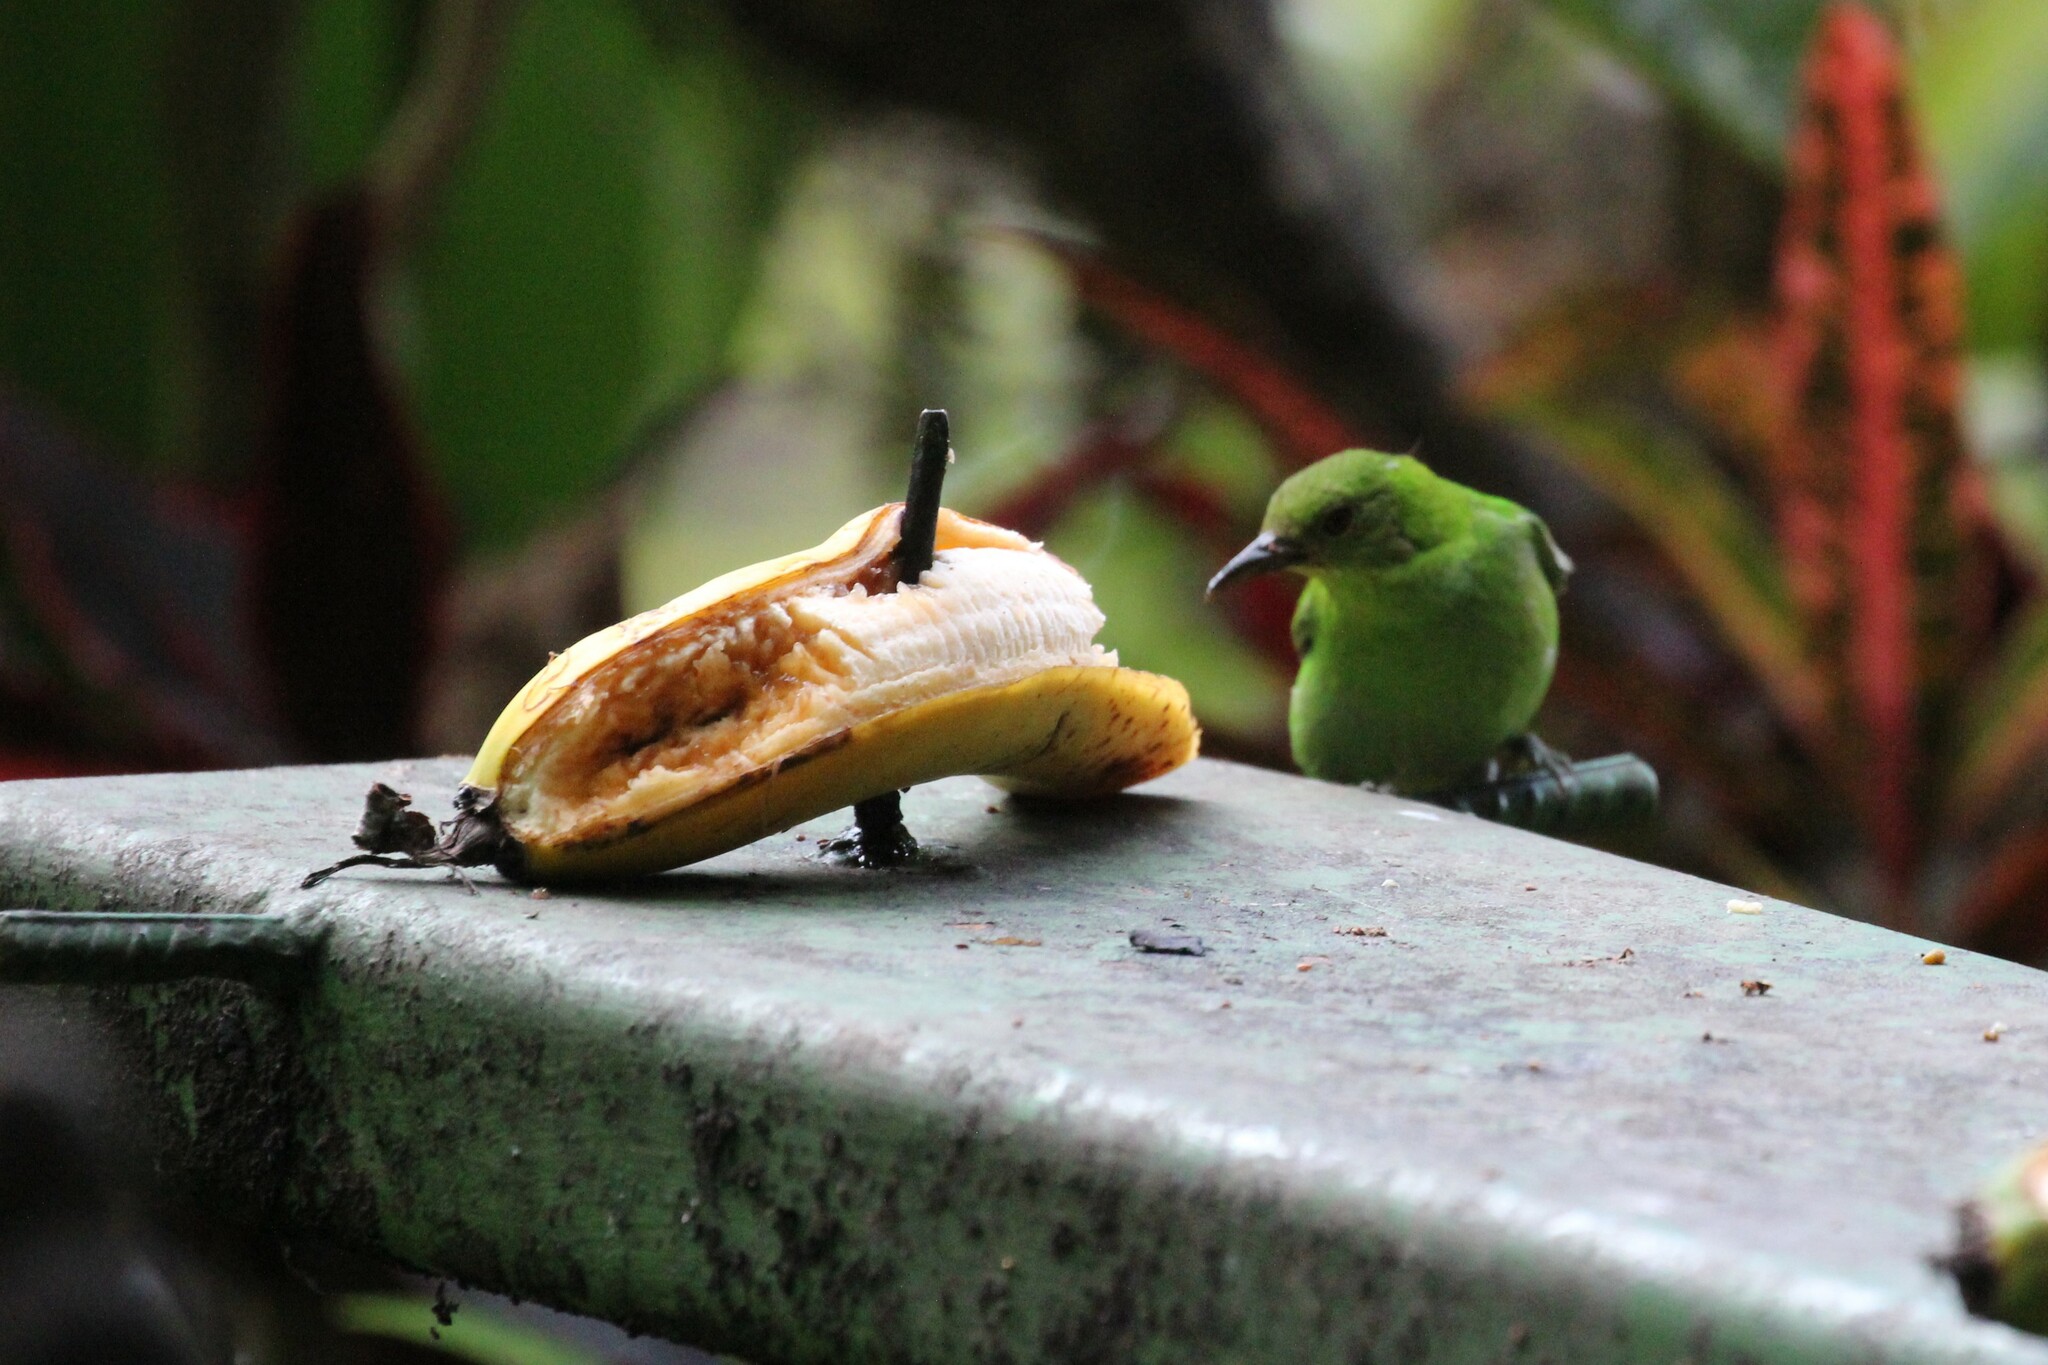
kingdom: Animalia
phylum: Chordata
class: Aves
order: Passeriformes
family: Thraupidae
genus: Chlorophanes
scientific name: Chlorophanes spiza
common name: Green honeycreeper
